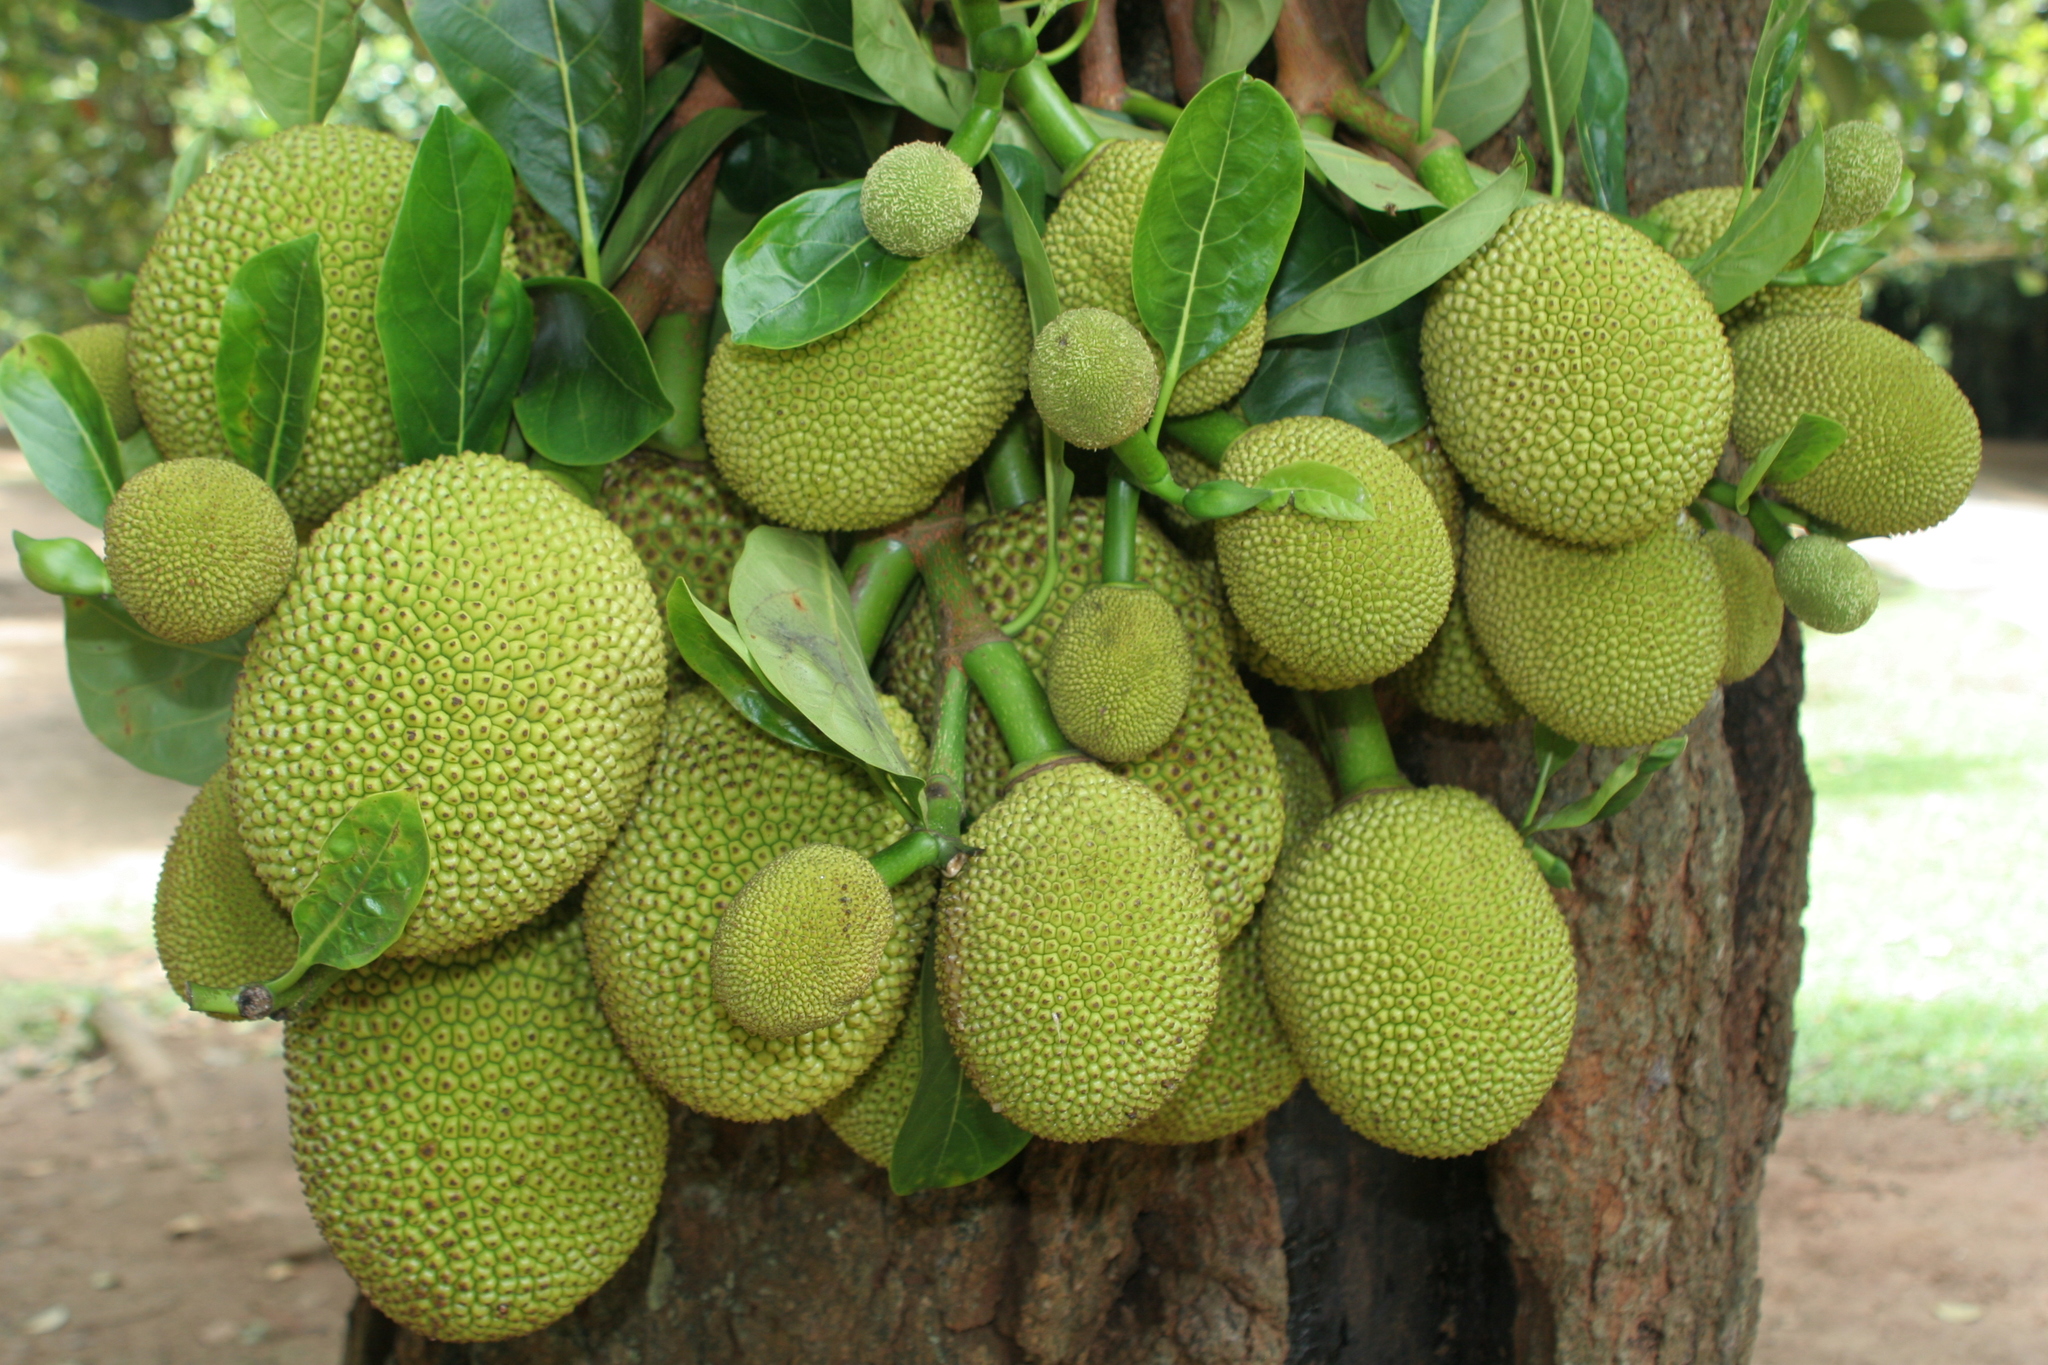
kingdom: Plantae
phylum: Tracheophyta
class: Magnoliopsida
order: Rosales
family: Moraceae
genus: Artocarpus
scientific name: Artocarpus heterophyllus
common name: Jackfruit
